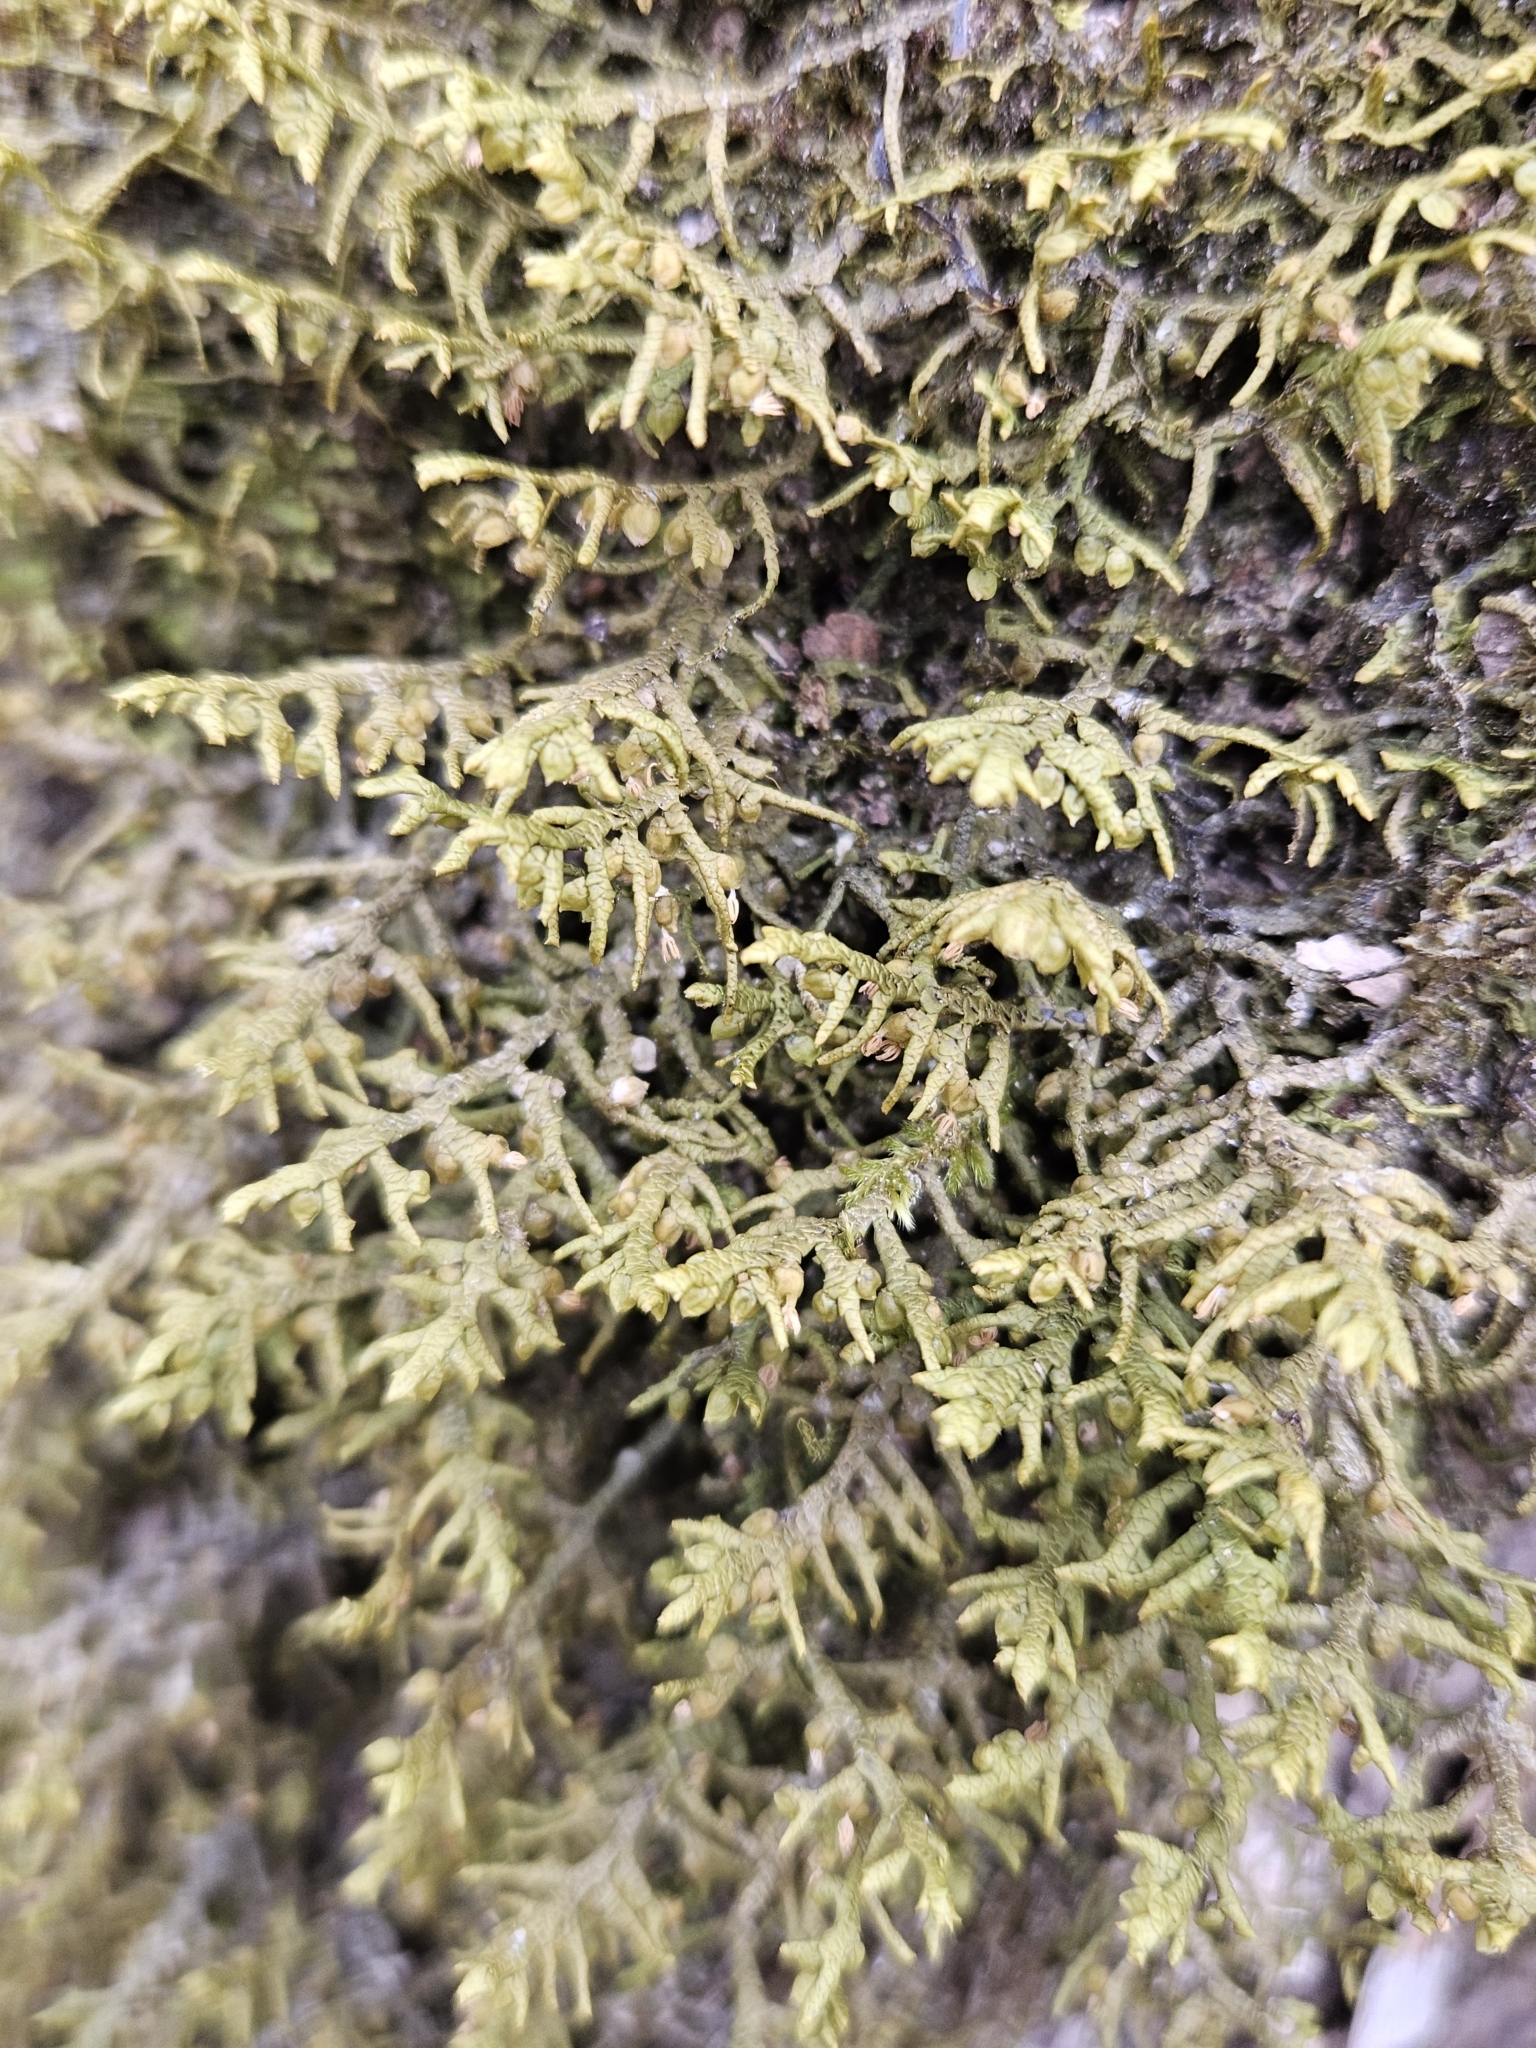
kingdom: Plantae
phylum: Marchantiophyta
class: Jungermanniopsida
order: Porellales
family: Porellaceae
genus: Porella
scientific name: Porella platyphylla
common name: Wall scalewort
